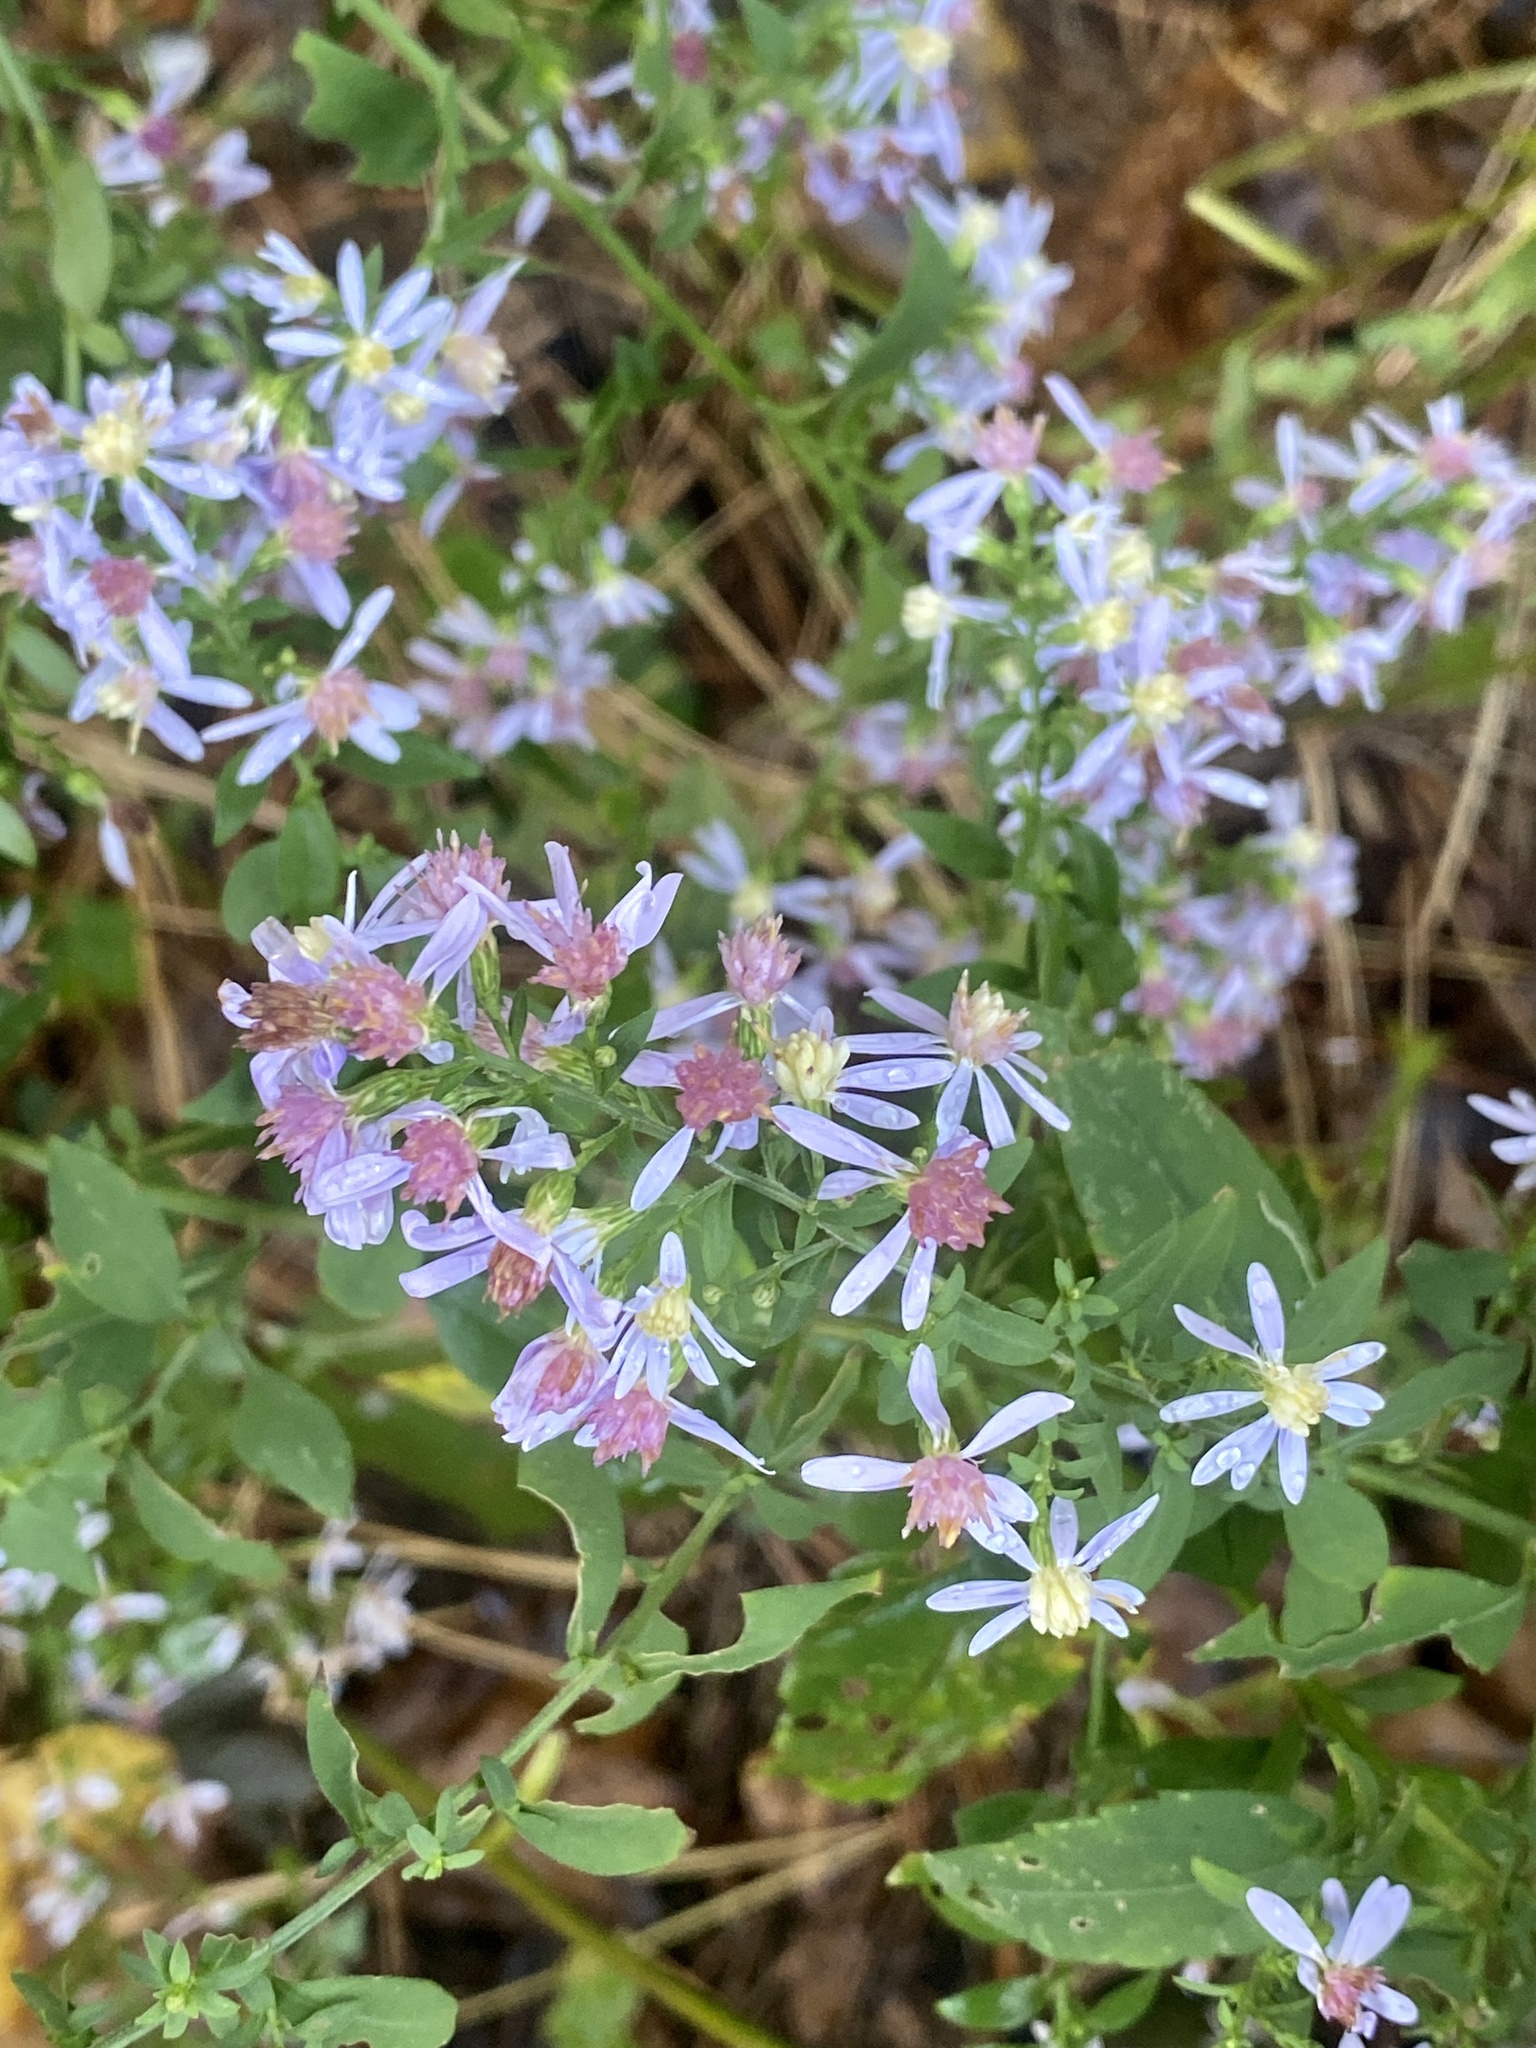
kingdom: Plantae
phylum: Tracheophyta
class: Magnoliopsida
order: Asterales
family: Asteraceae
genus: Symphyotrichum
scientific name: Symphyotrichum cordifolium
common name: Beeweed
